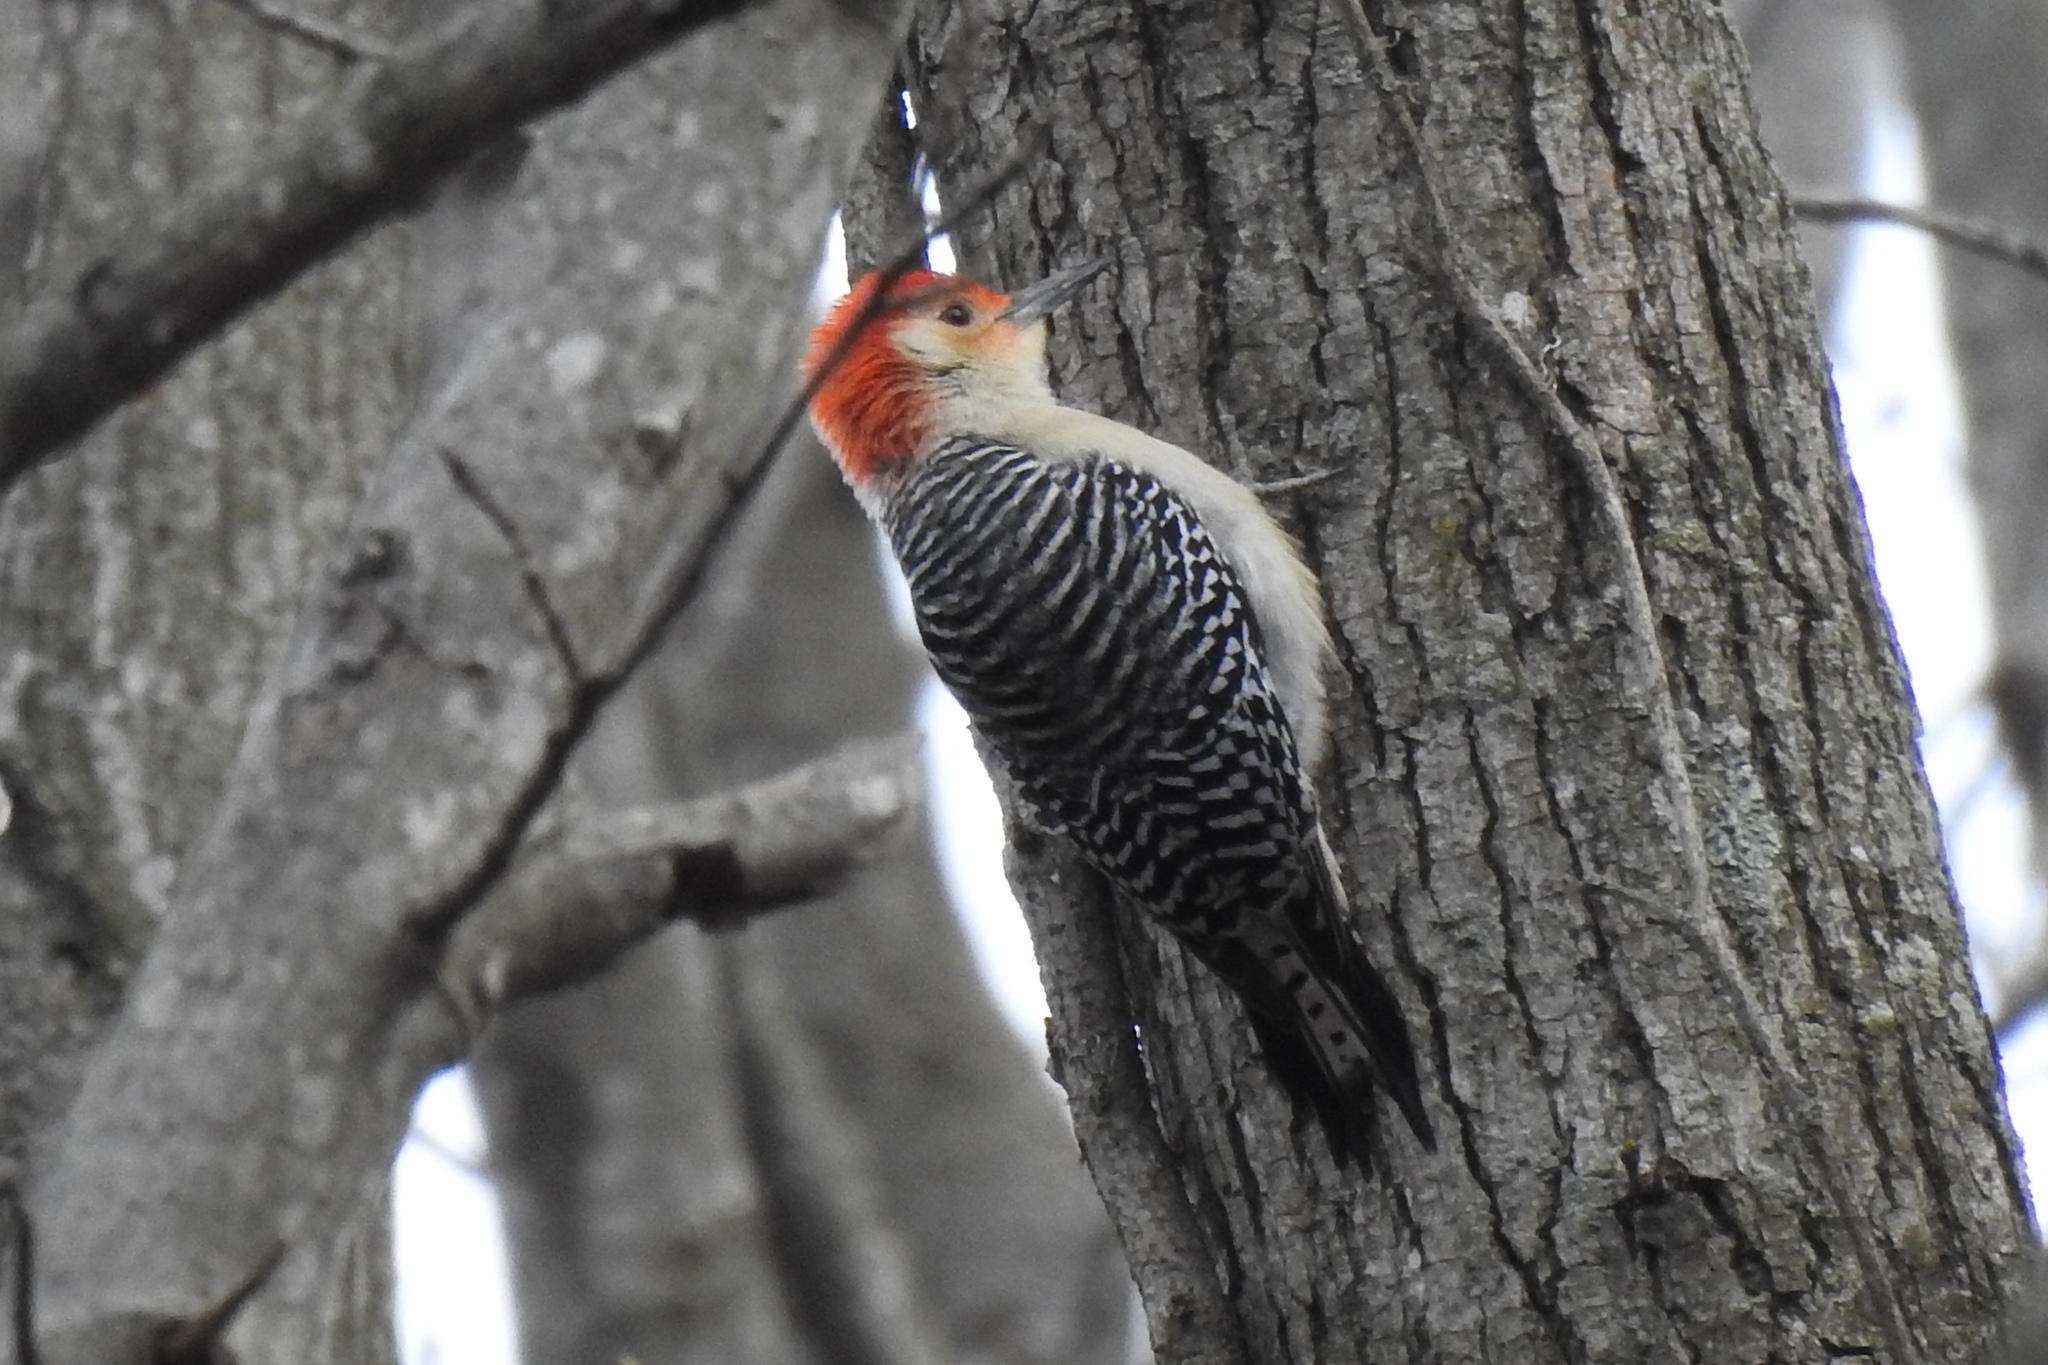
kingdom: Animalia
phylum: Chordata
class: Aves
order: Piciformes
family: Picidae
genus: Melanerpes
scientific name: Melanerpes carolinus
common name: Red-bellied woodpecker
